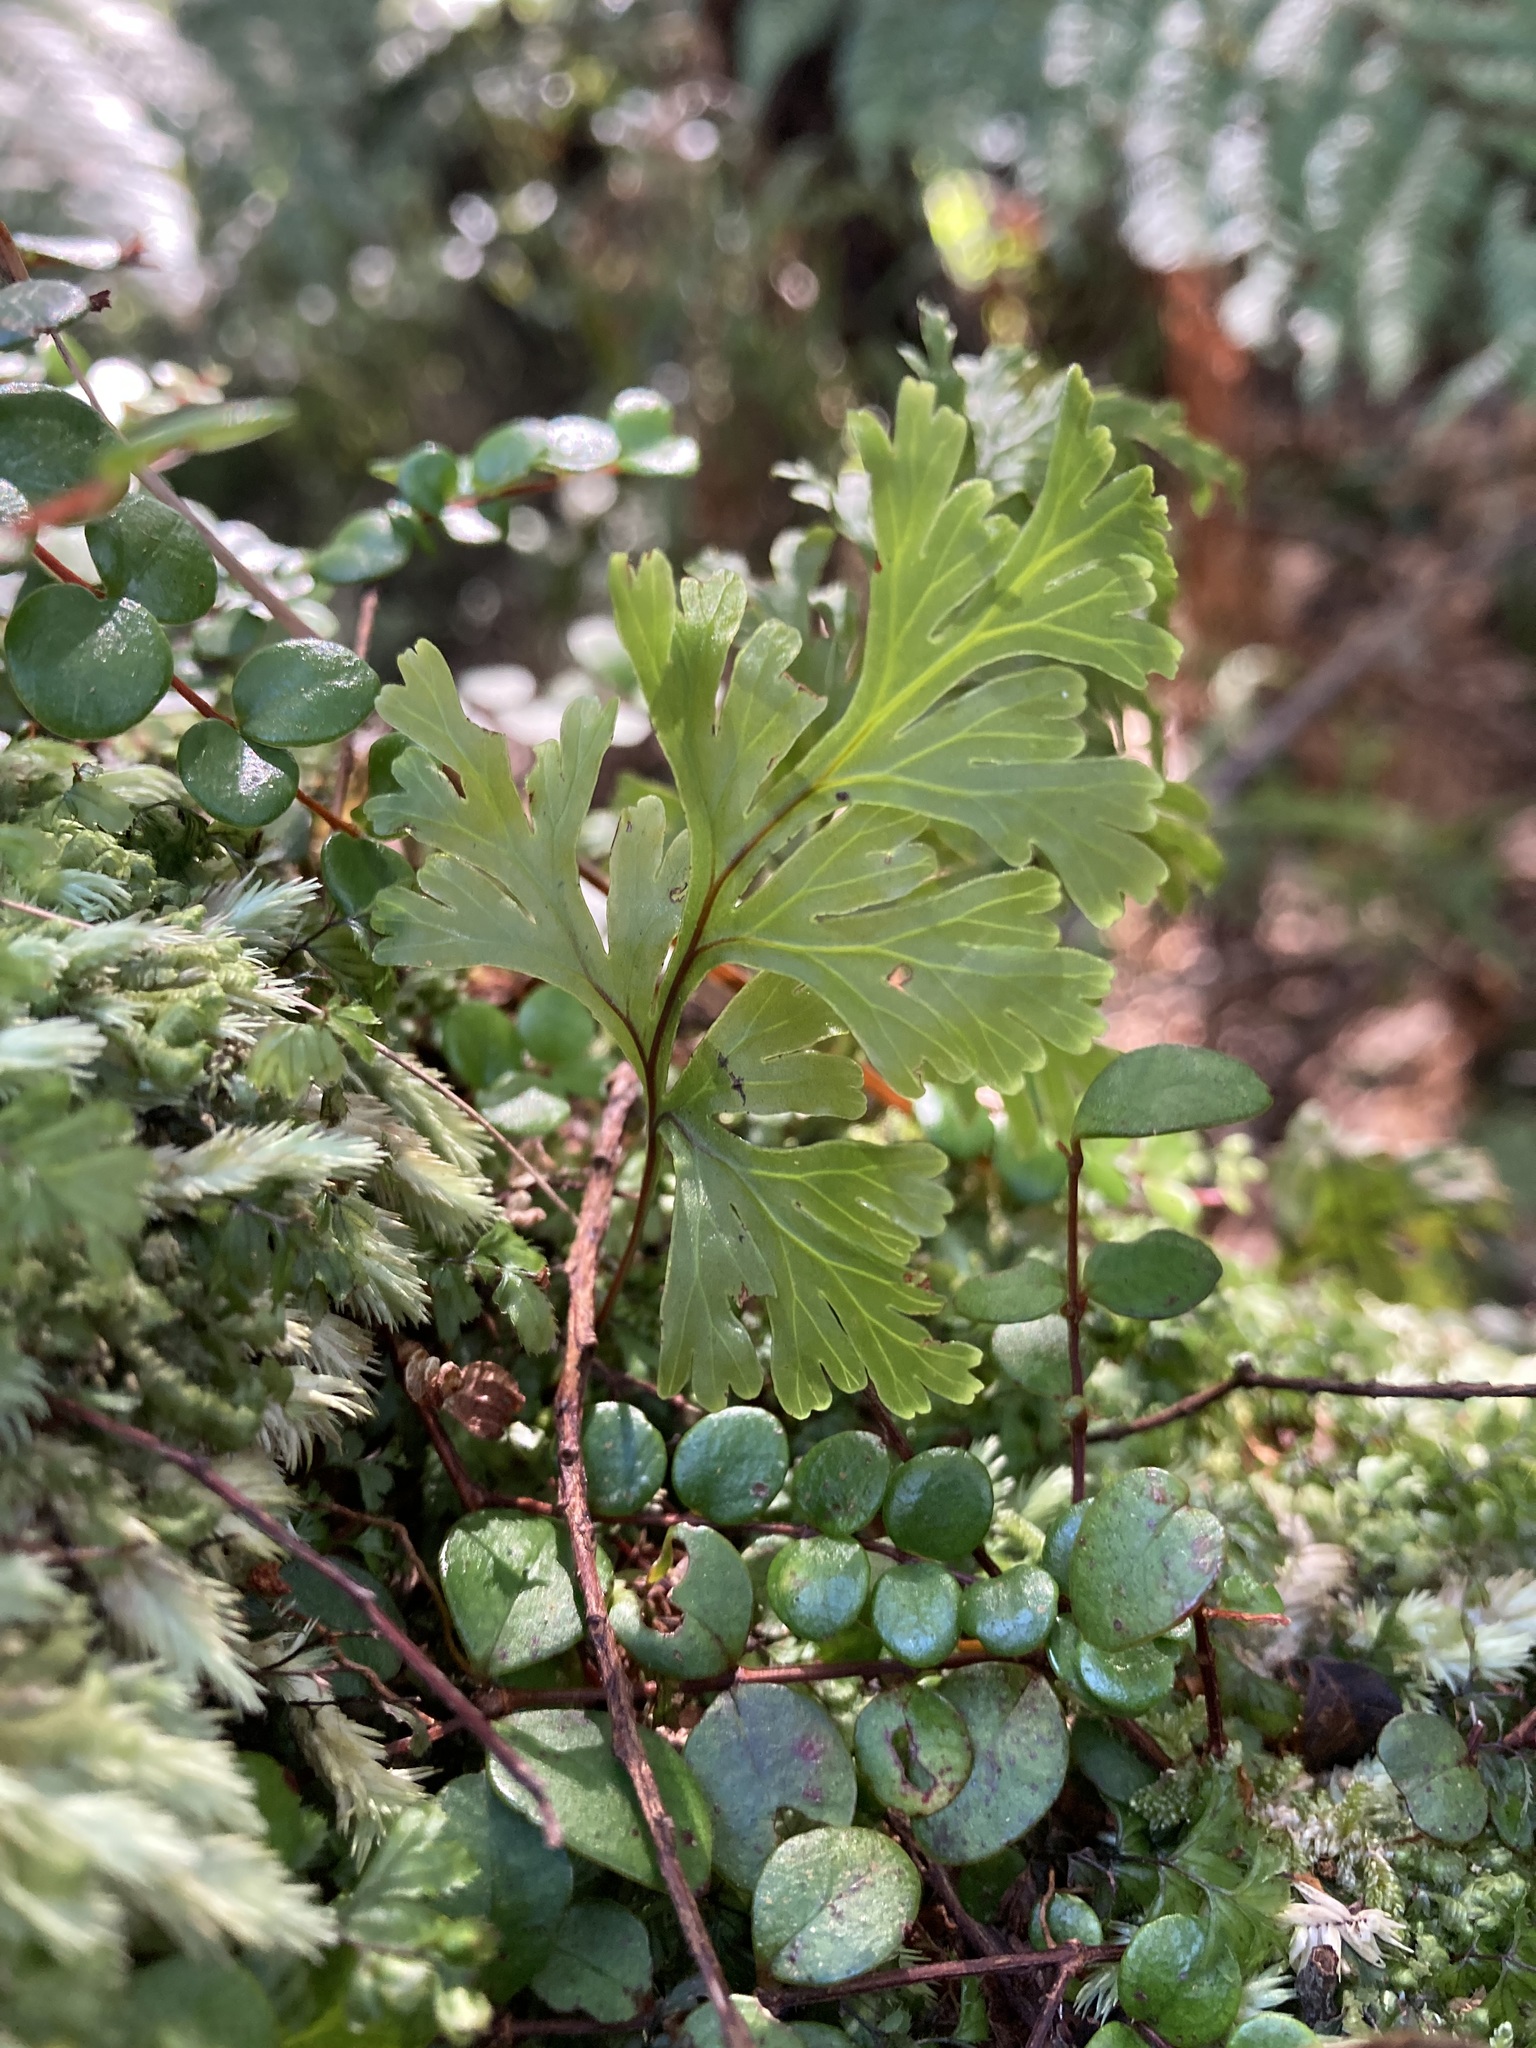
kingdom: Plantae
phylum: Tracheophyta
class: Polypodiopsida
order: Hymenophyllales
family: Hymenophyllaceae
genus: Hymenophyllum
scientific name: Hymenophyllum dilatatum
